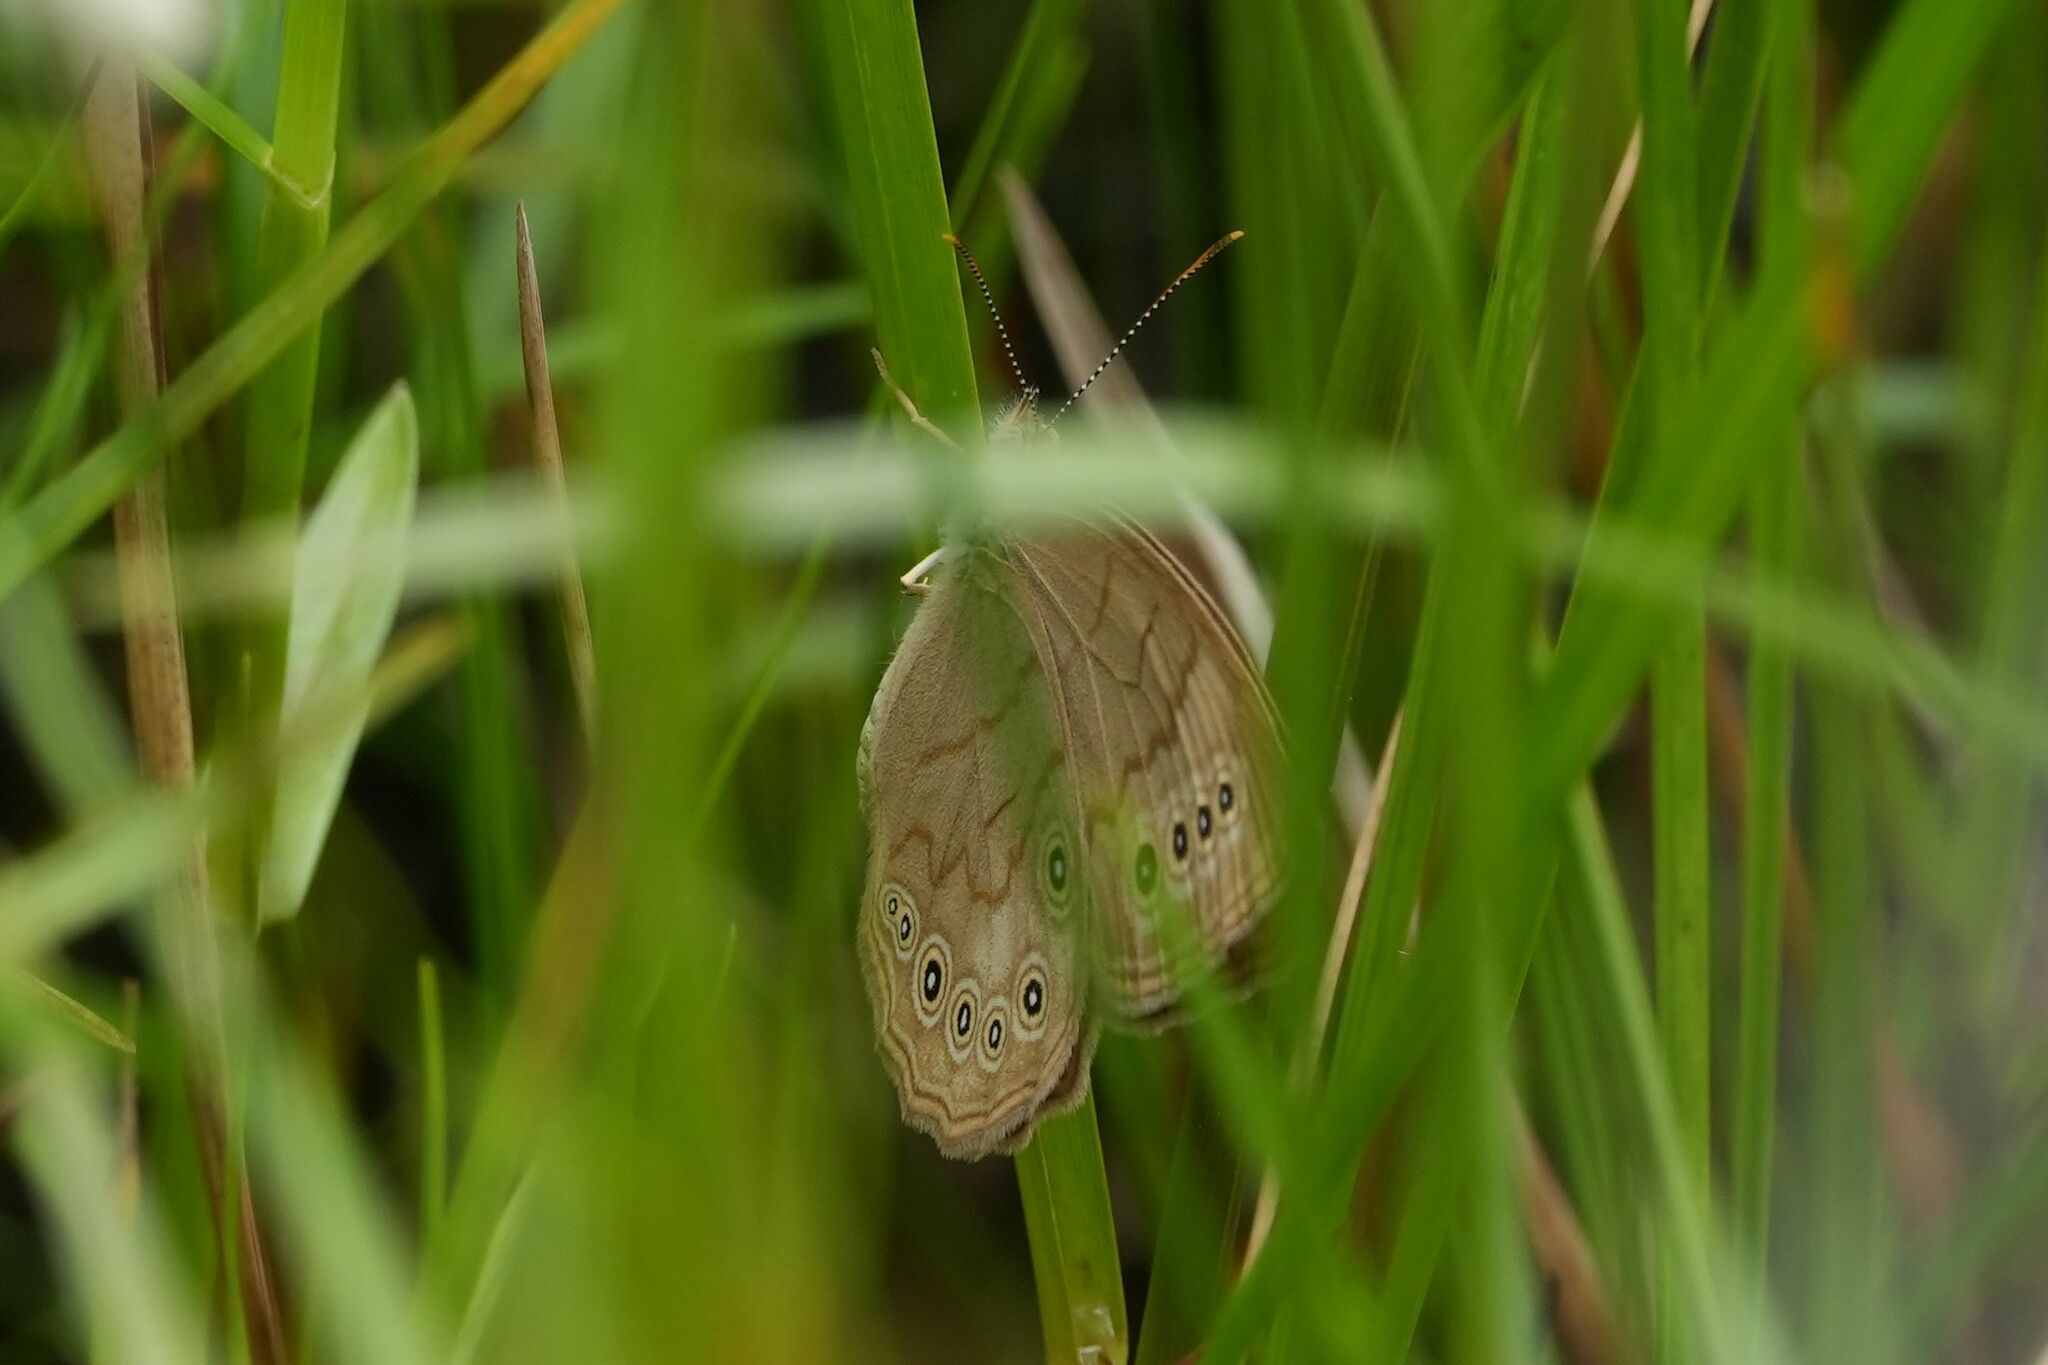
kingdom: Animalia
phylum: Arthropoda
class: Insecta
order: Lepidoptera
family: Nymphalidae
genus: Lethe
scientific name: Lethe eurydice
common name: Eyed brown
